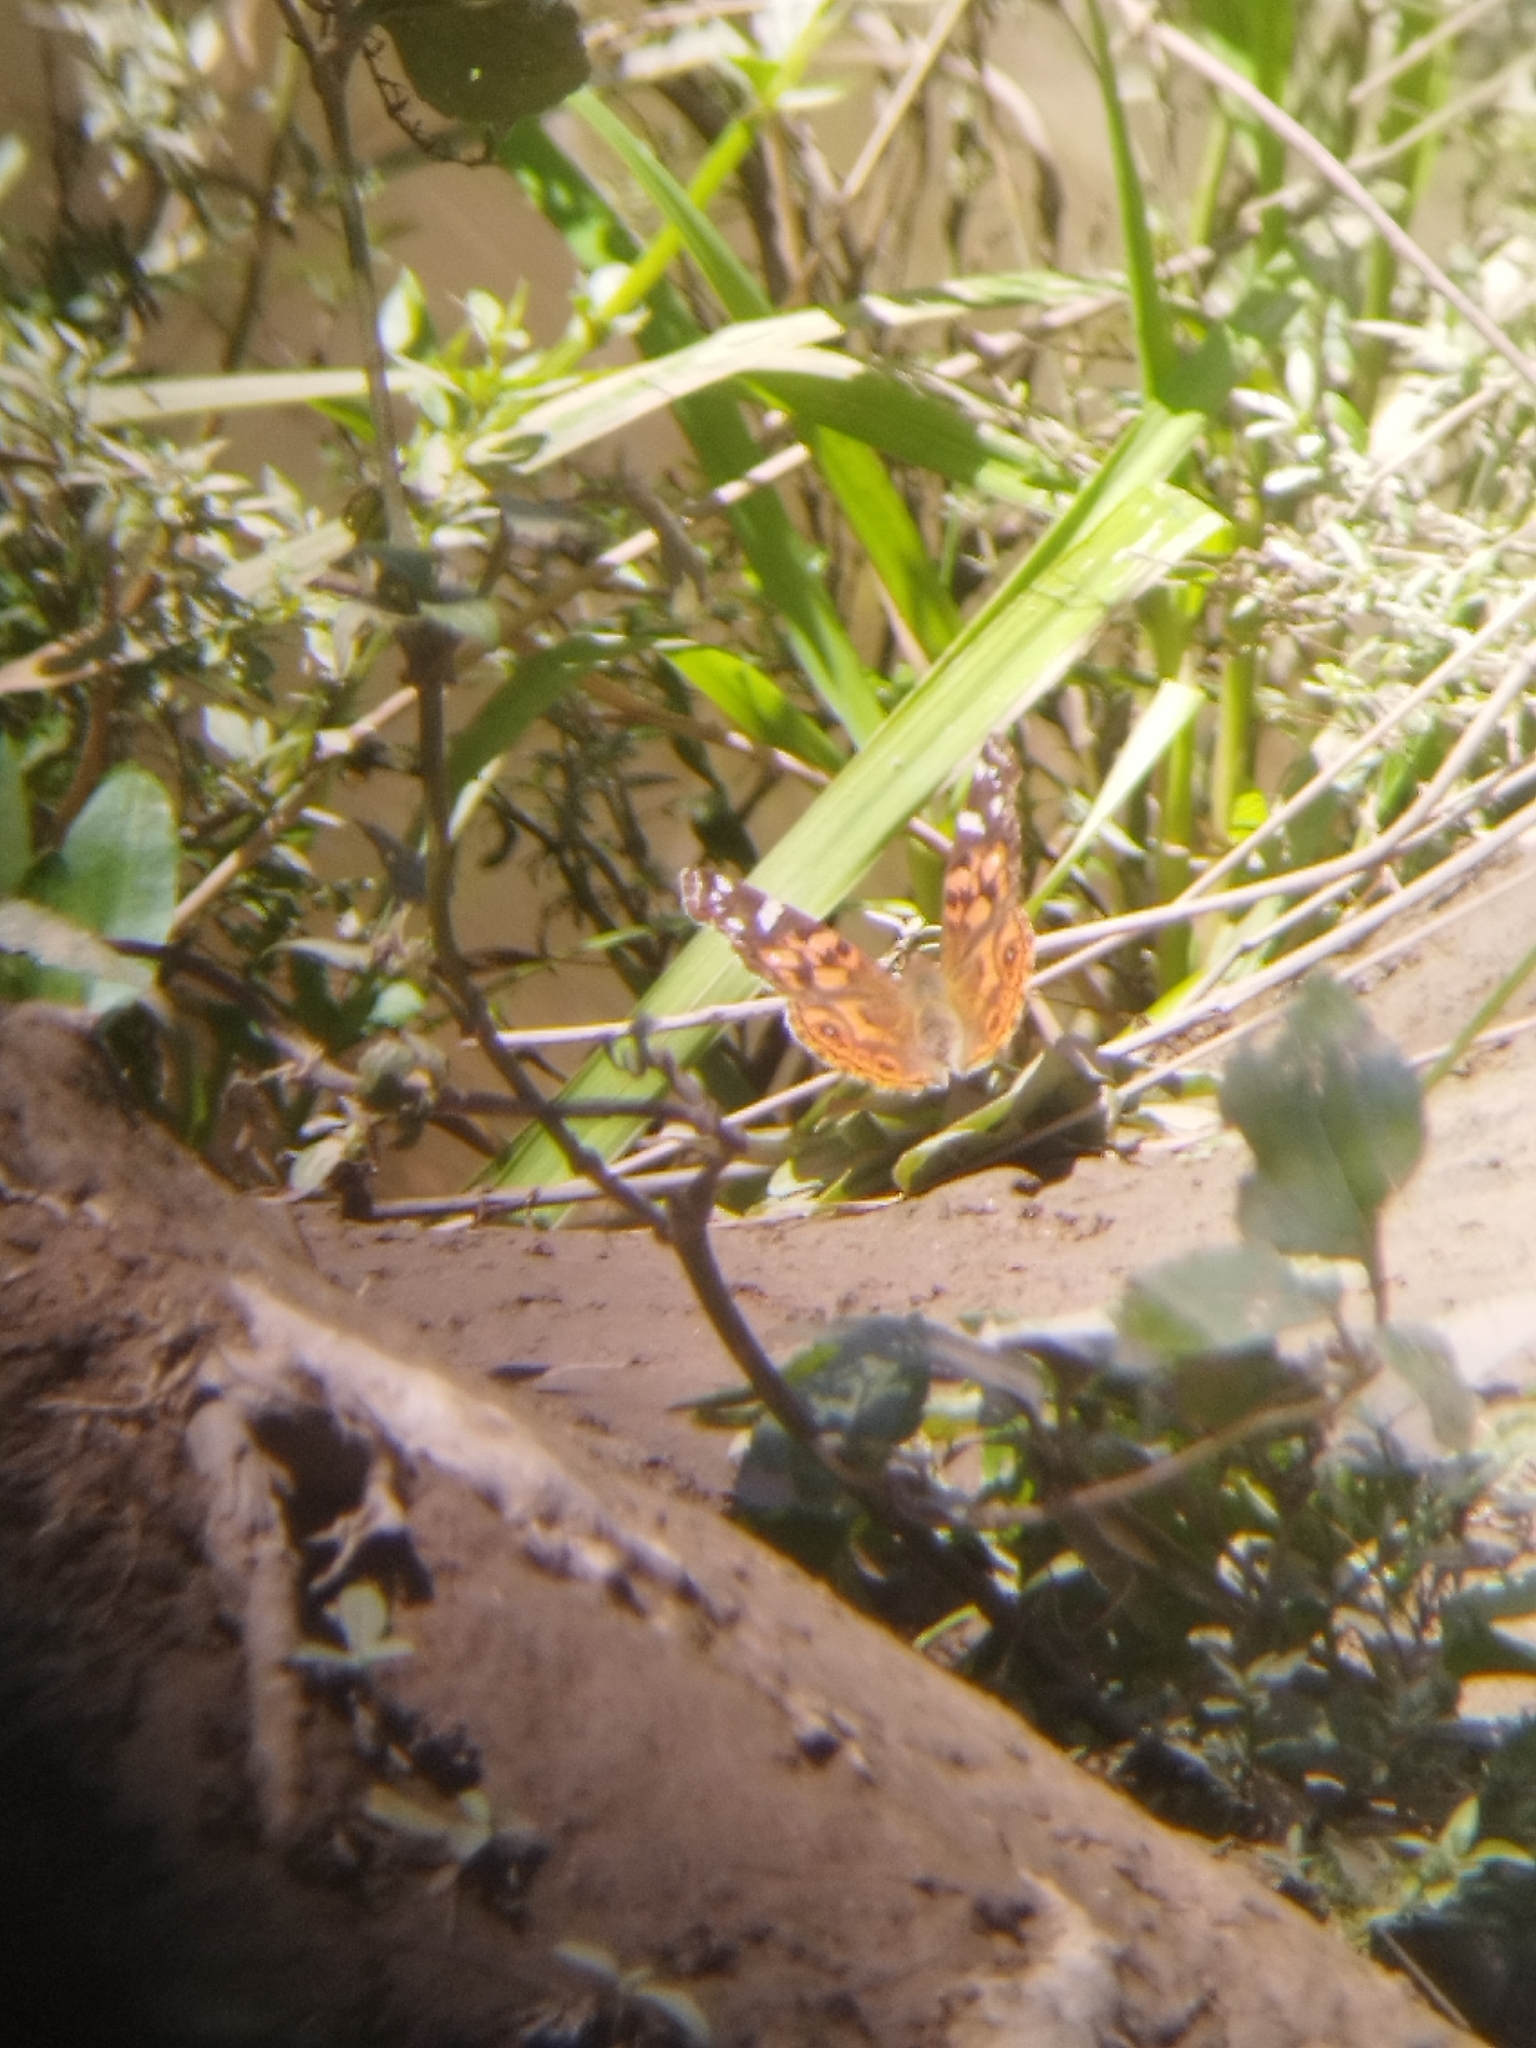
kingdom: Animalia
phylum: Arthropoda
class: Insecta
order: Lepidoptera
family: Nymphalidae
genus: Vanessa
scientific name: Vanessa braziliensis
